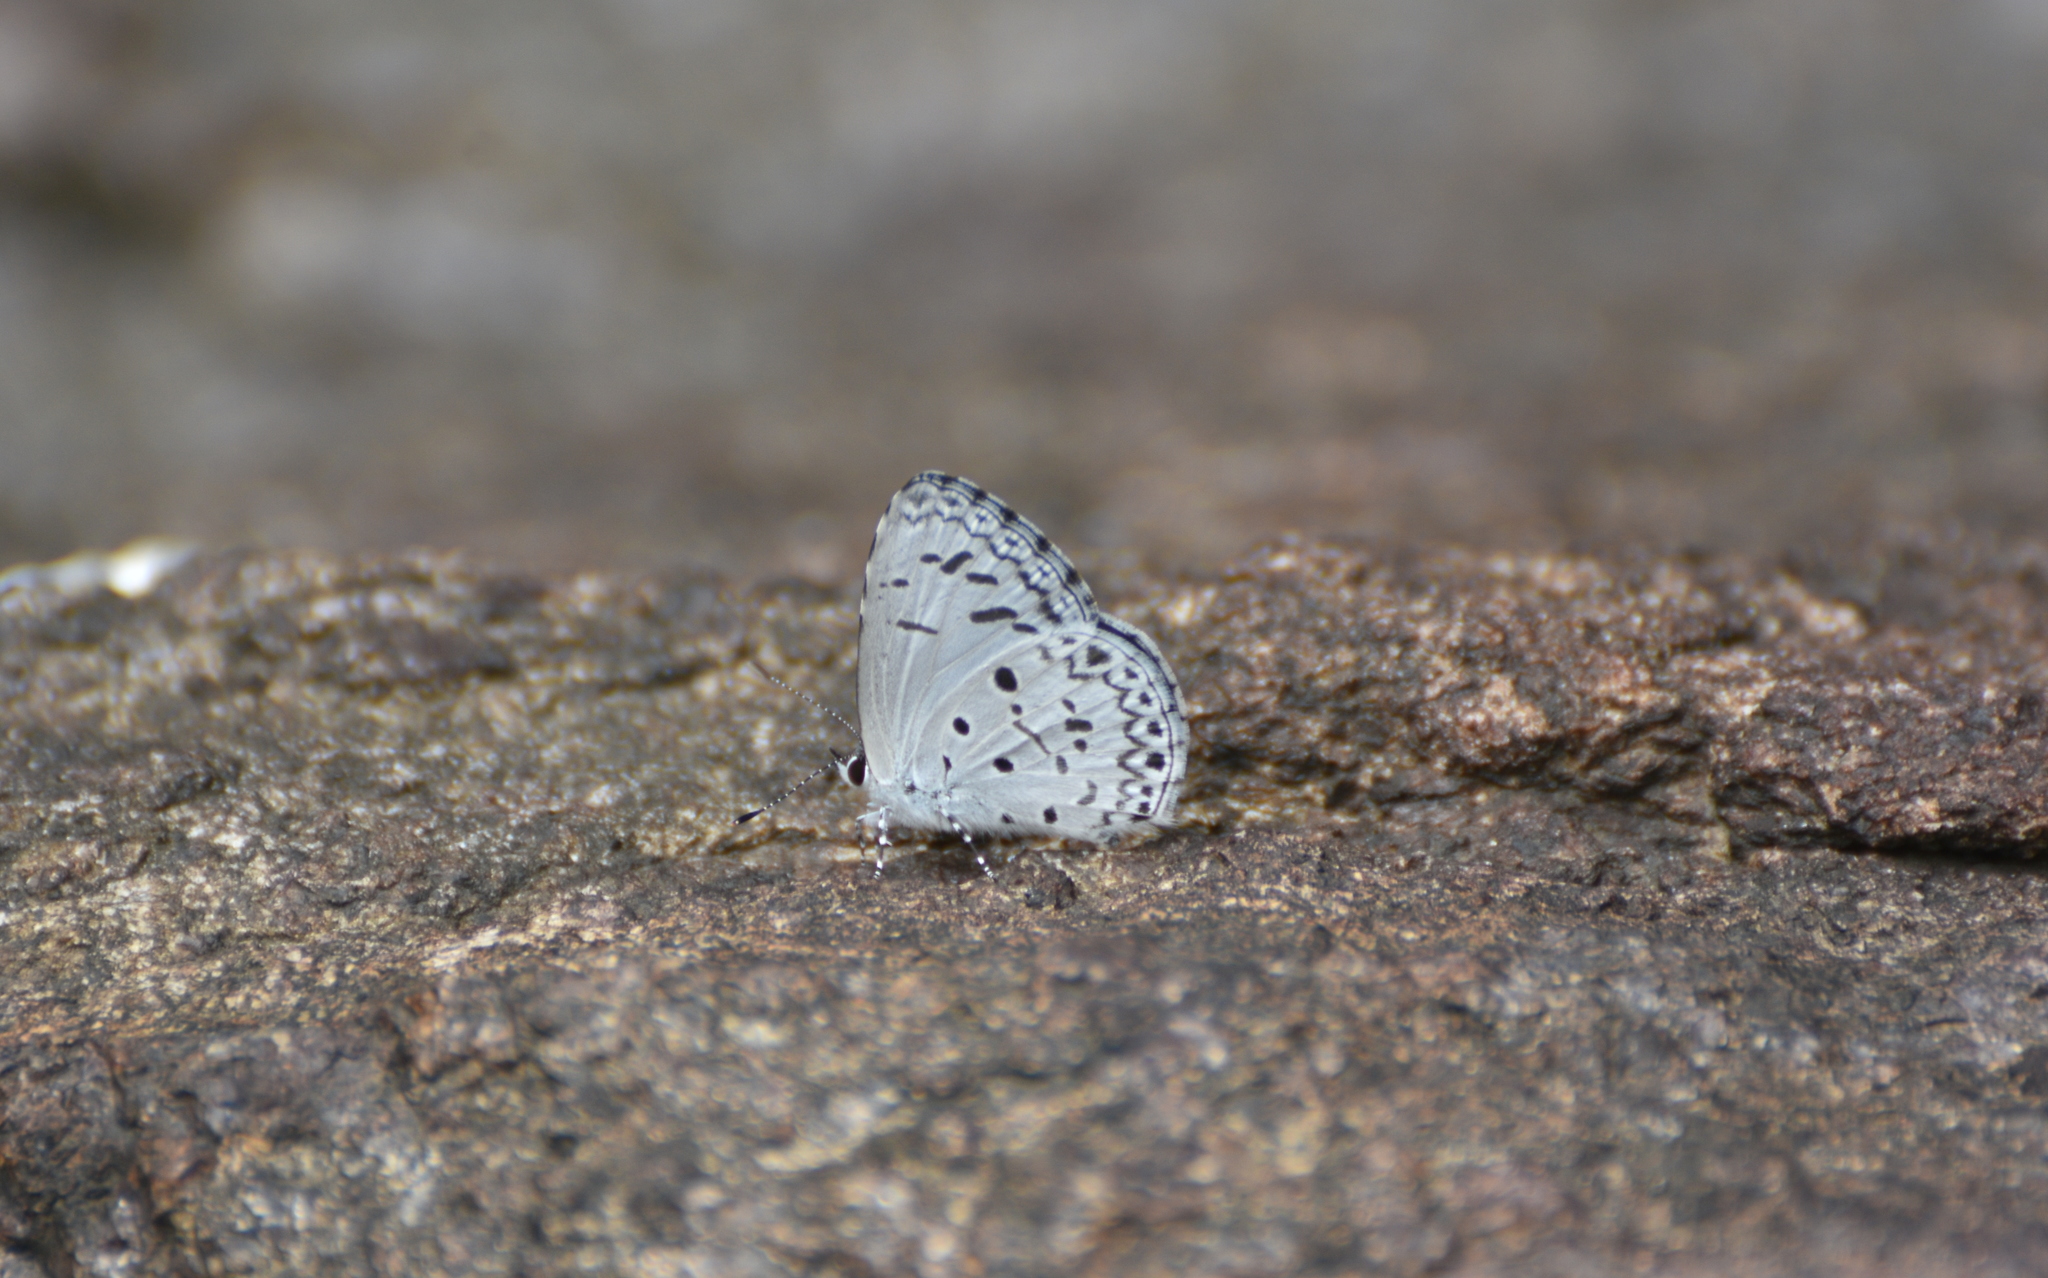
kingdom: Animalia
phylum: Arthropoda
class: Insecta
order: Lepidoptera
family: Lycaenidae
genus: Acytolepis
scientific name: Acytolepis puspa
